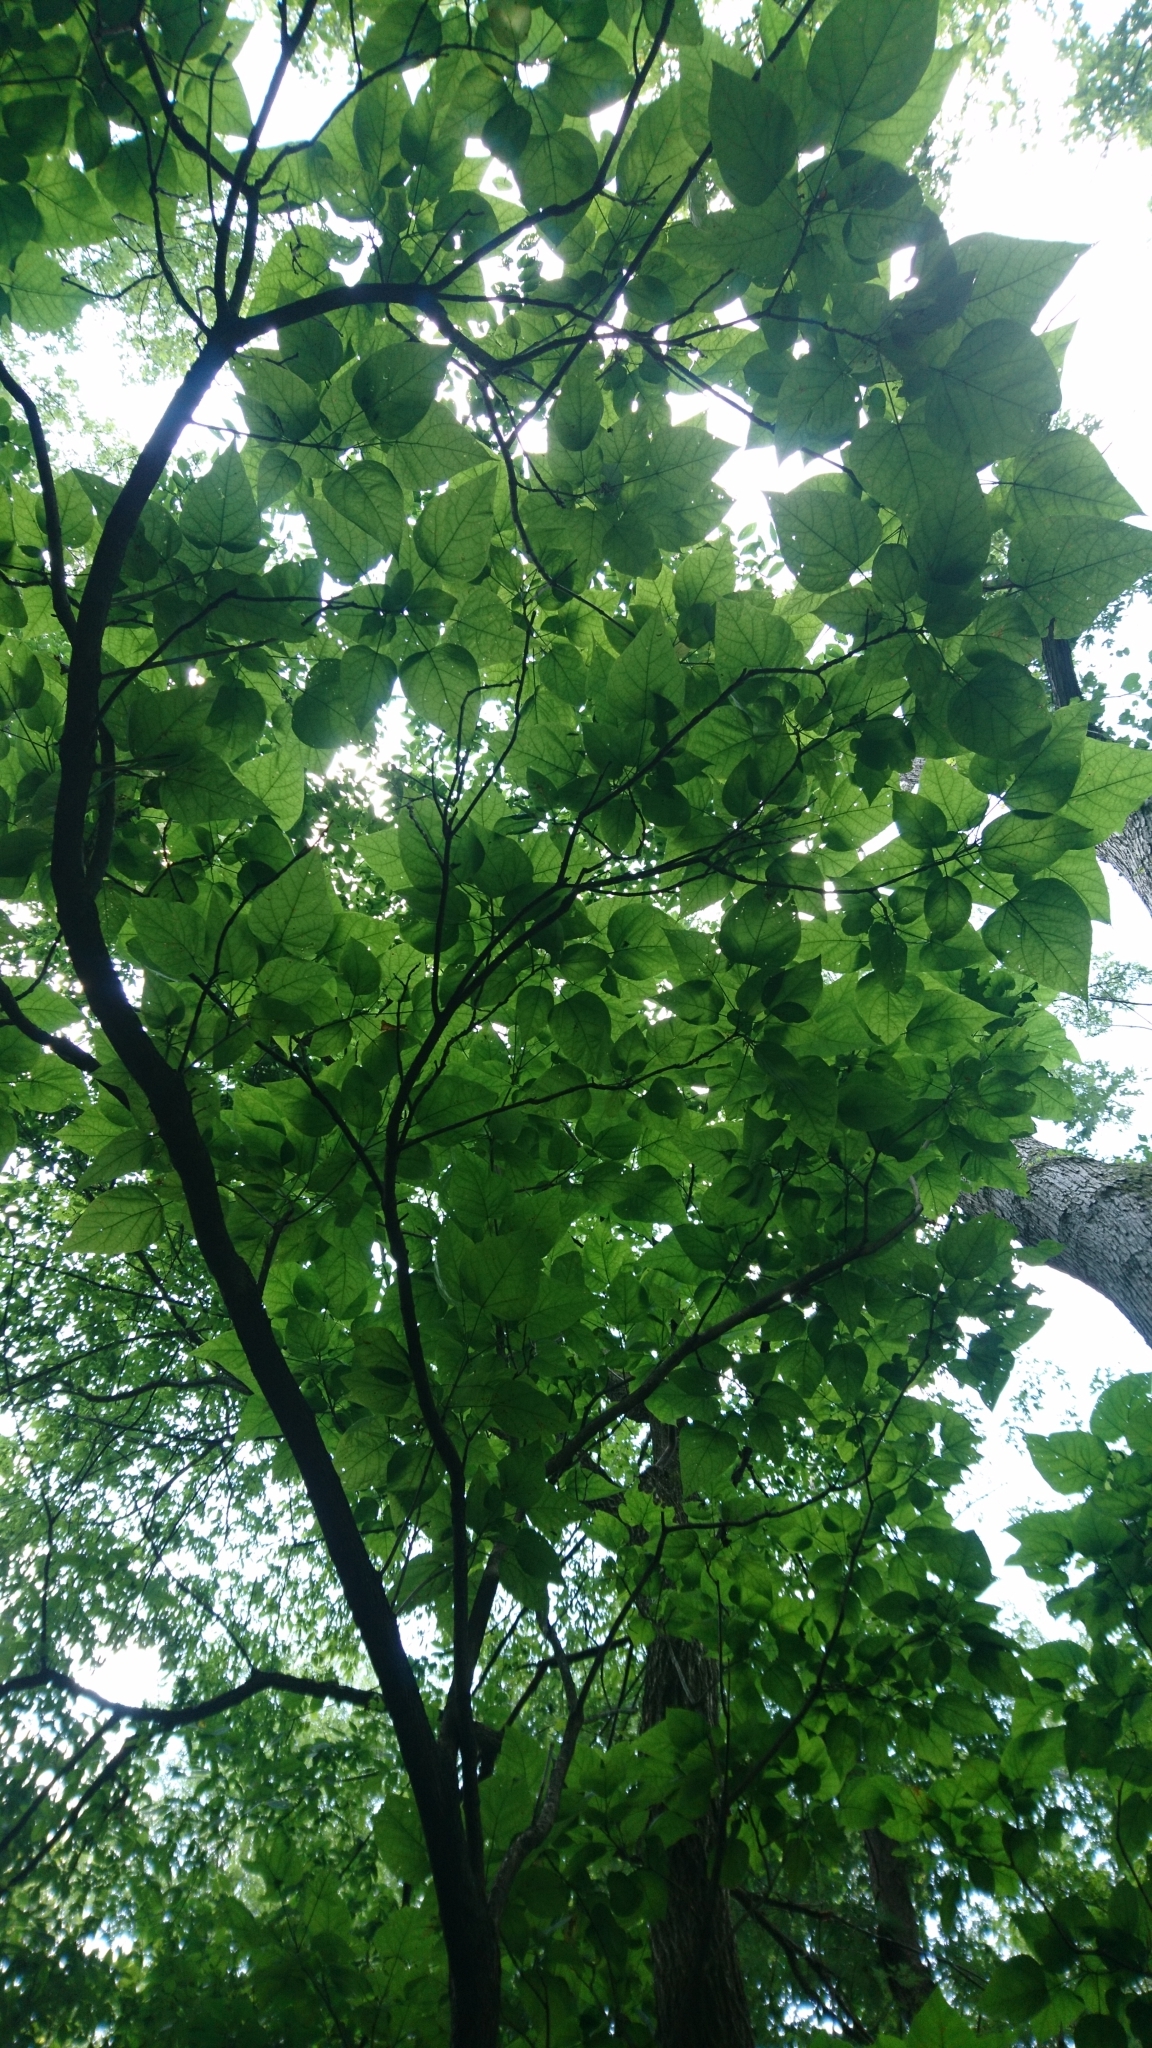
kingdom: Plantae
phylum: Tracheophyta
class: Magnoliopsida
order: Lamiales
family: Bignoniaceae
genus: Catalpa
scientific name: Catalpa speciosa
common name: Northern catalpa
